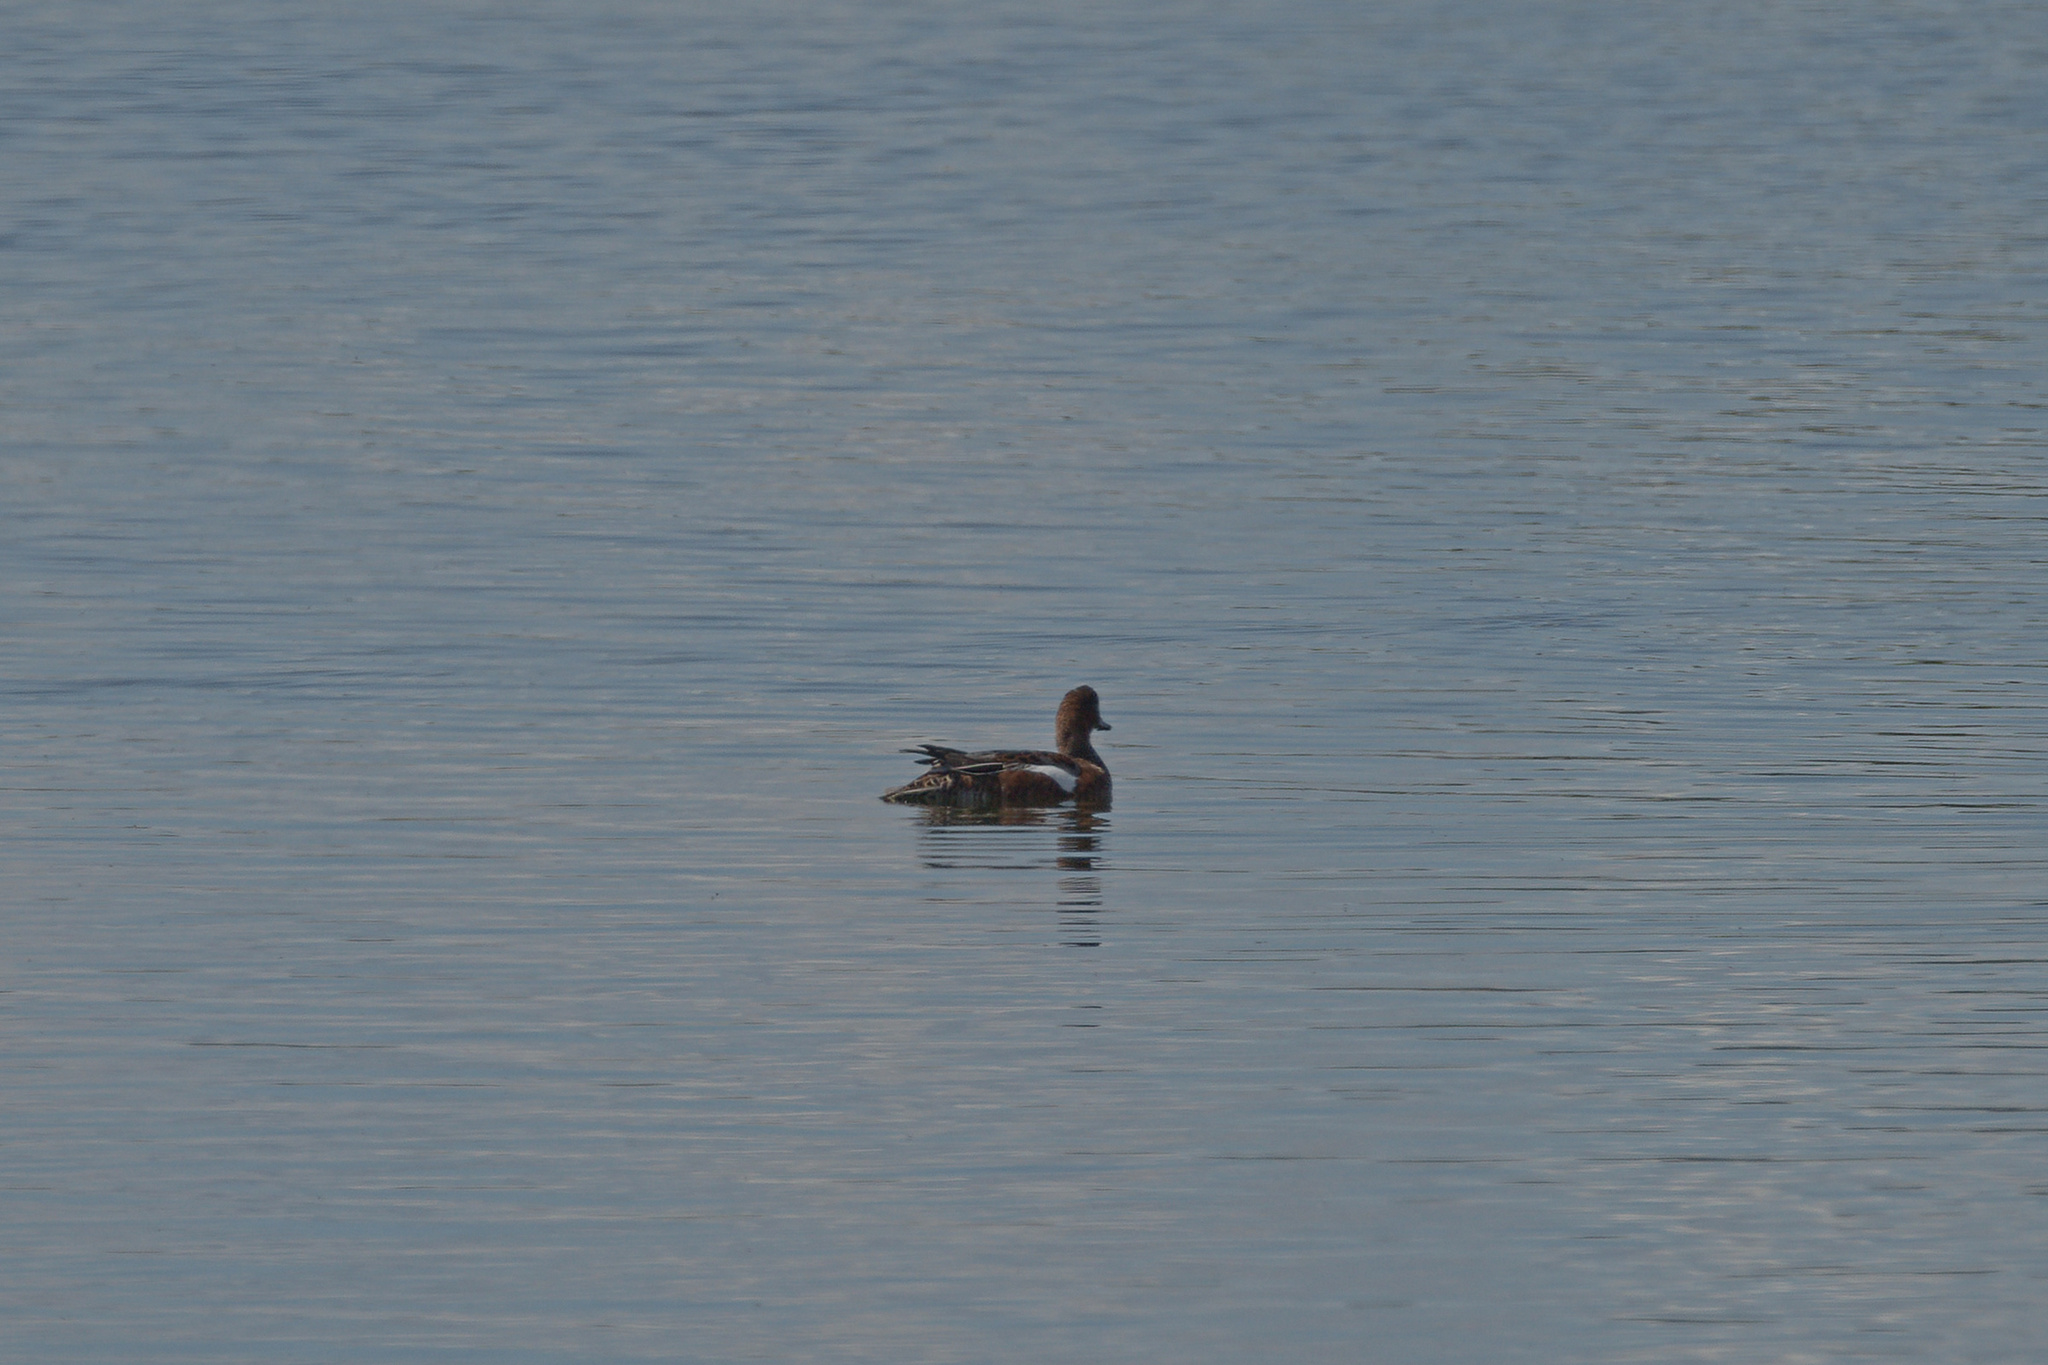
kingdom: Animalia
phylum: Chordata
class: Aves
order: Anseriformes
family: Anatidae
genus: Mareca
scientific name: Mareca penelope
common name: Eurasian wigeon
